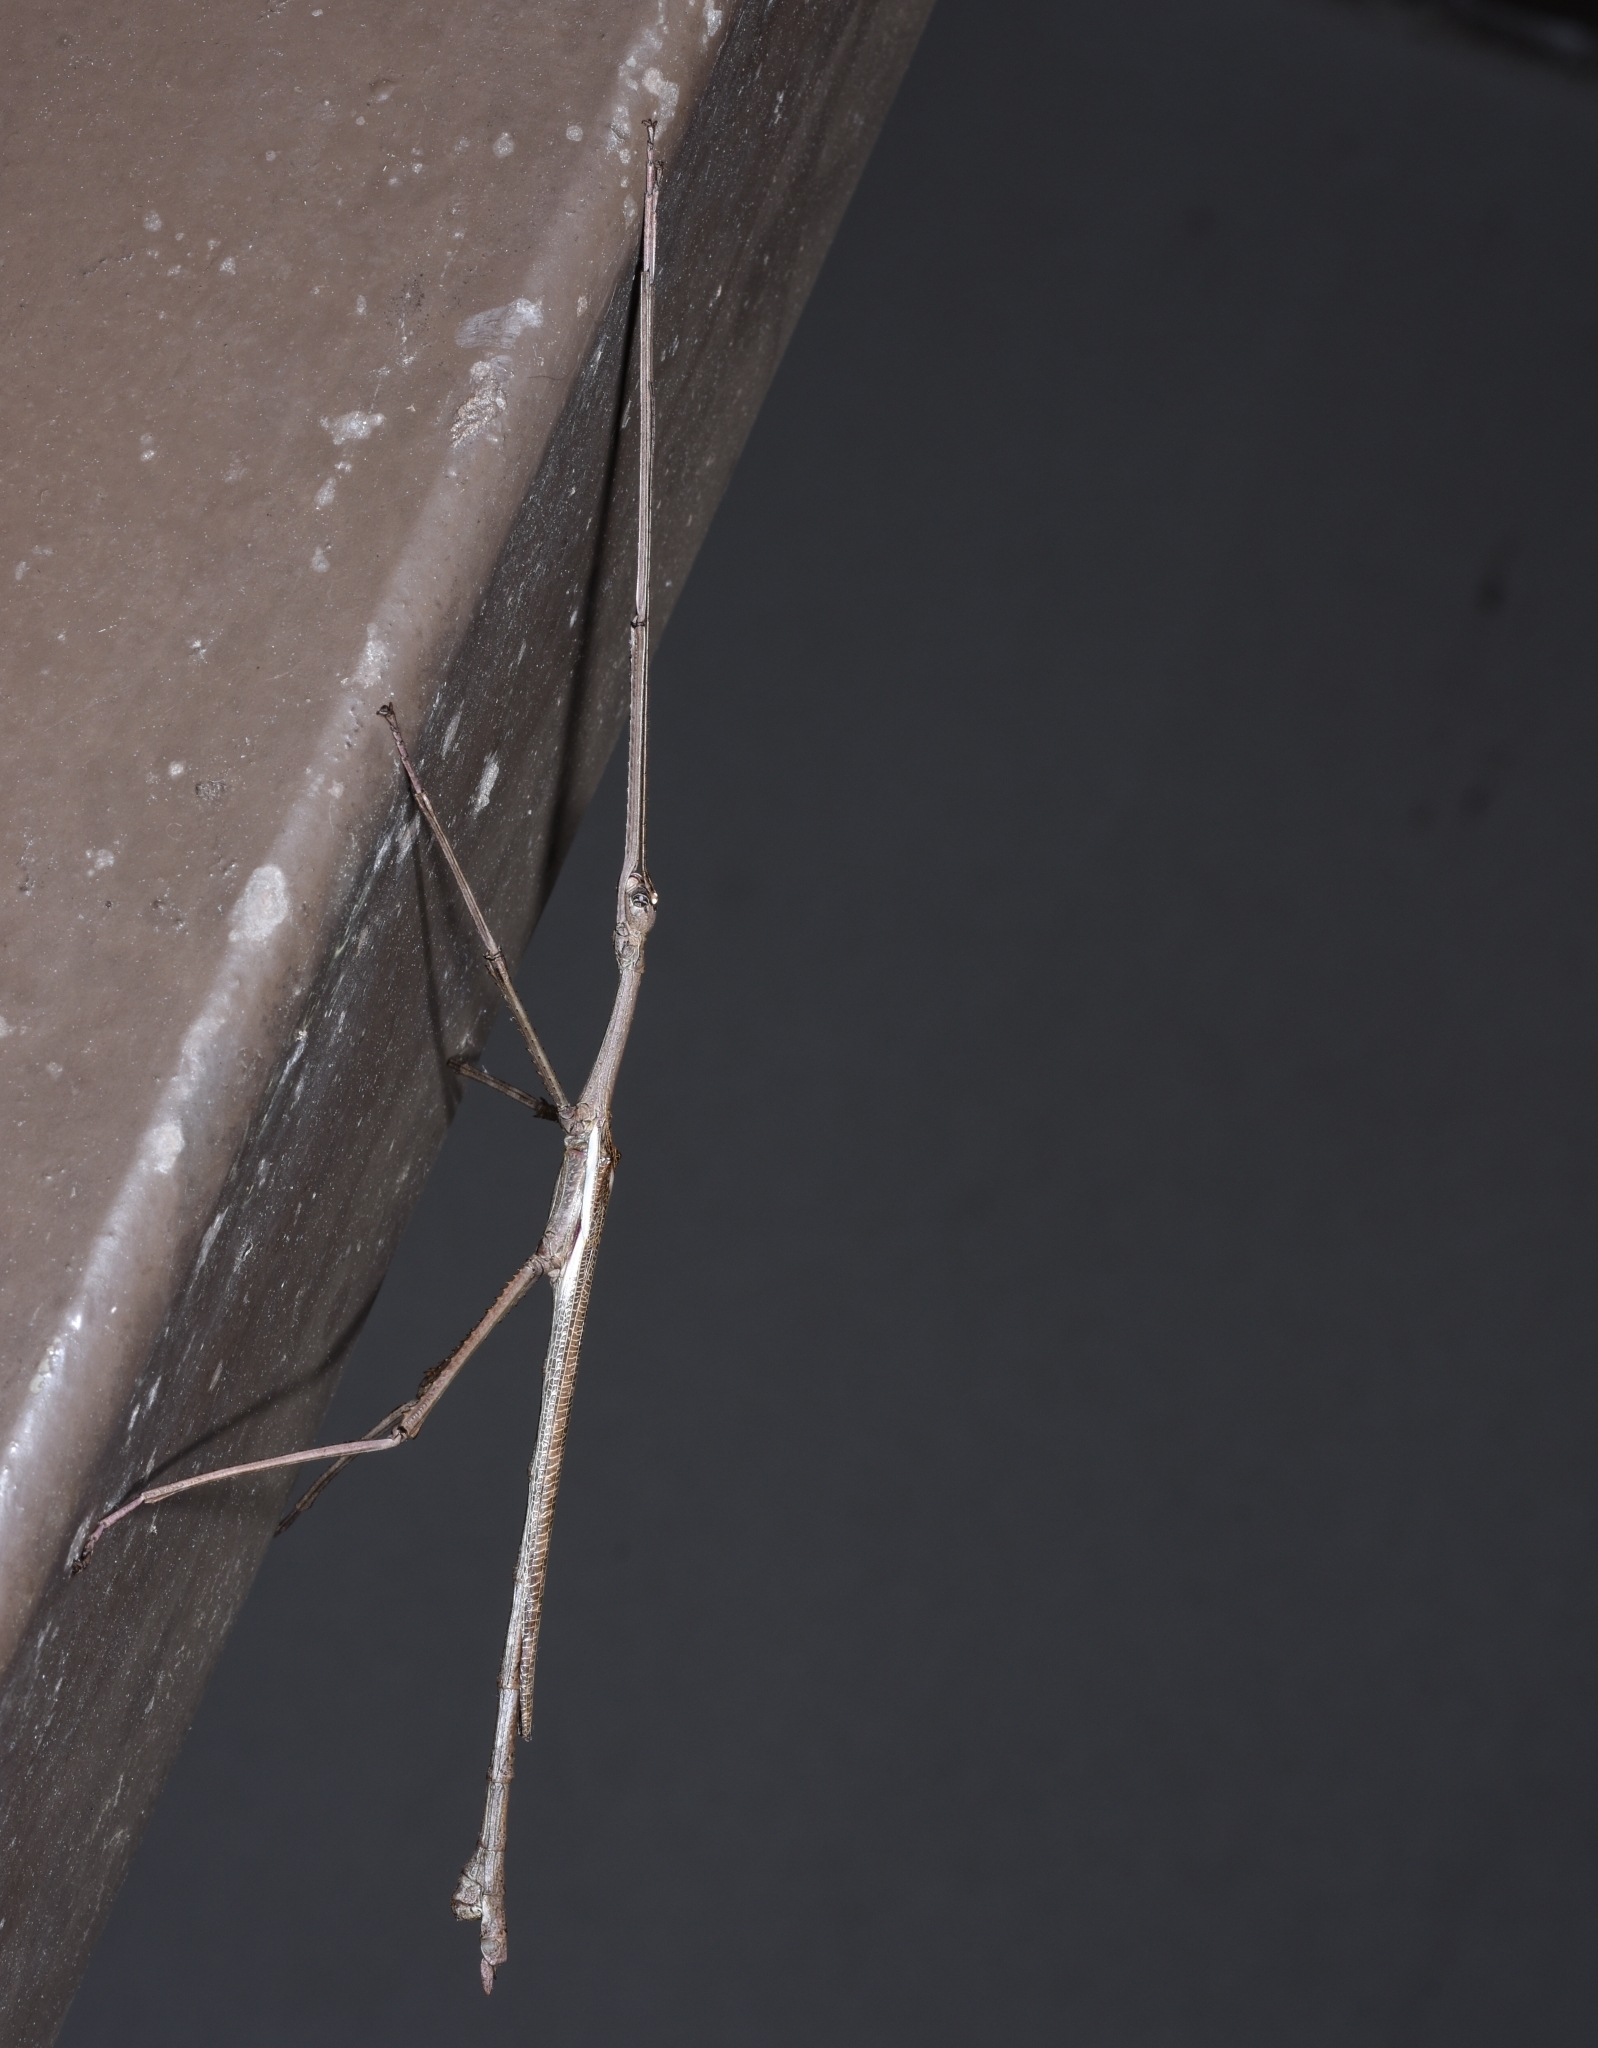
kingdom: Animalia
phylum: Arthropoda
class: Insecta
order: Phasmida
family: Phasmatidae
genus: Anchiale
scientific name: Anchiale briareus
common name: Strong stick insect
